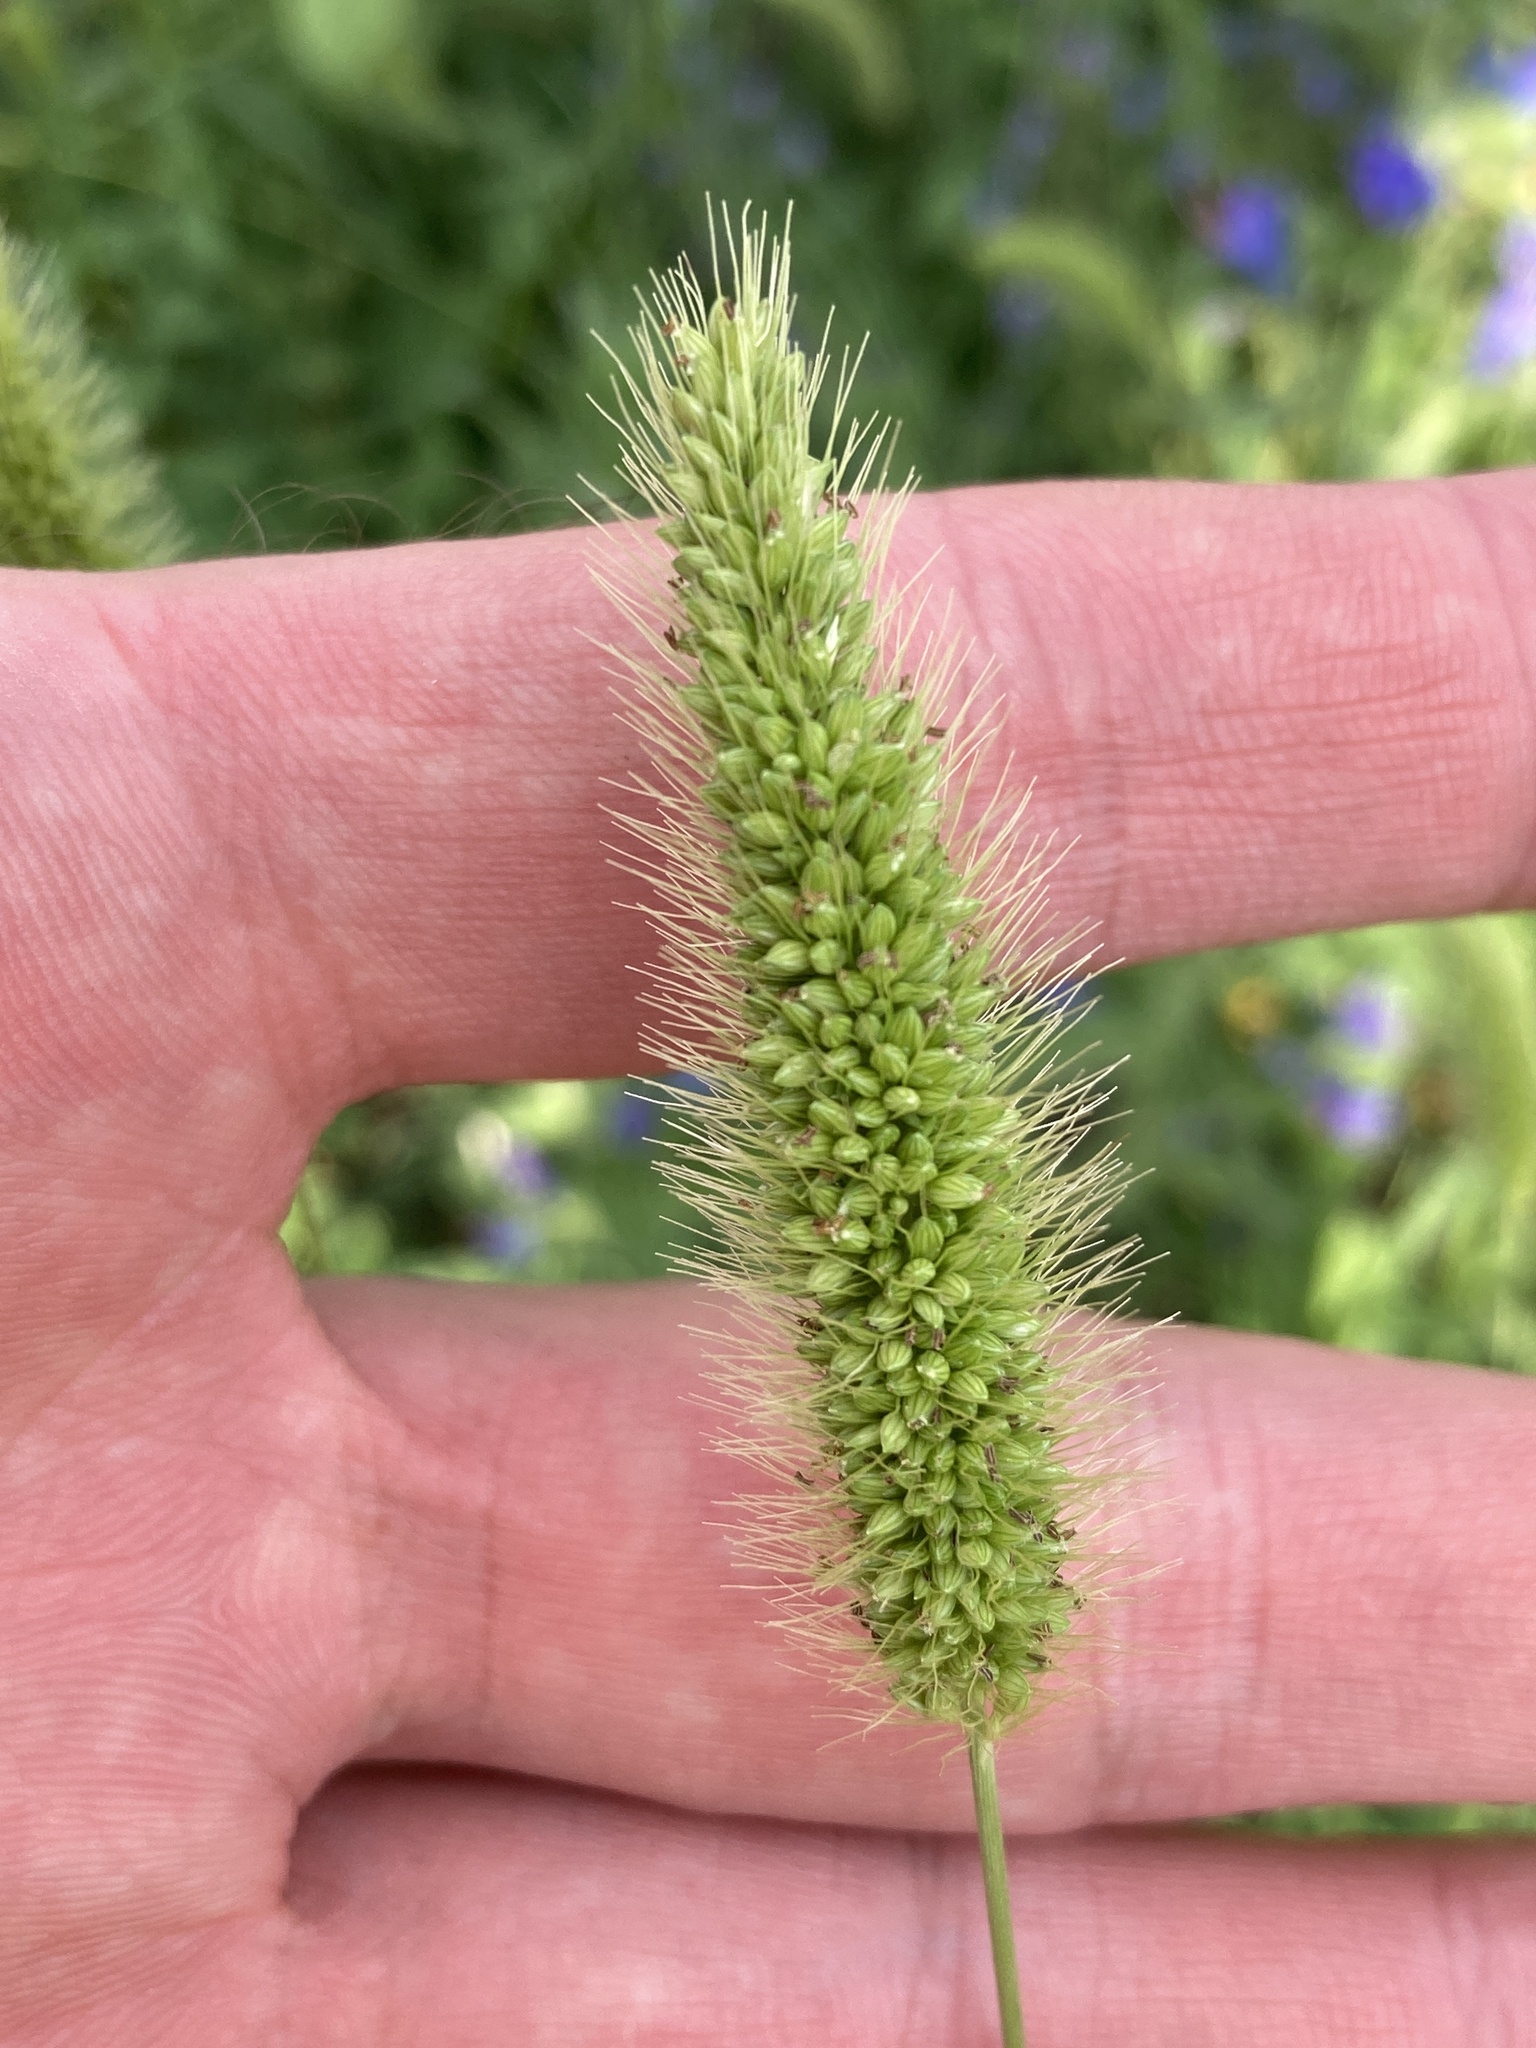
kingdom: Plantae
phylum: Tracheophyta
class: Liliopsida
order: Poales
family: Poaceae
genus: Setaria
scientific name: Setaria viridis
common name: Green bristlegrass
